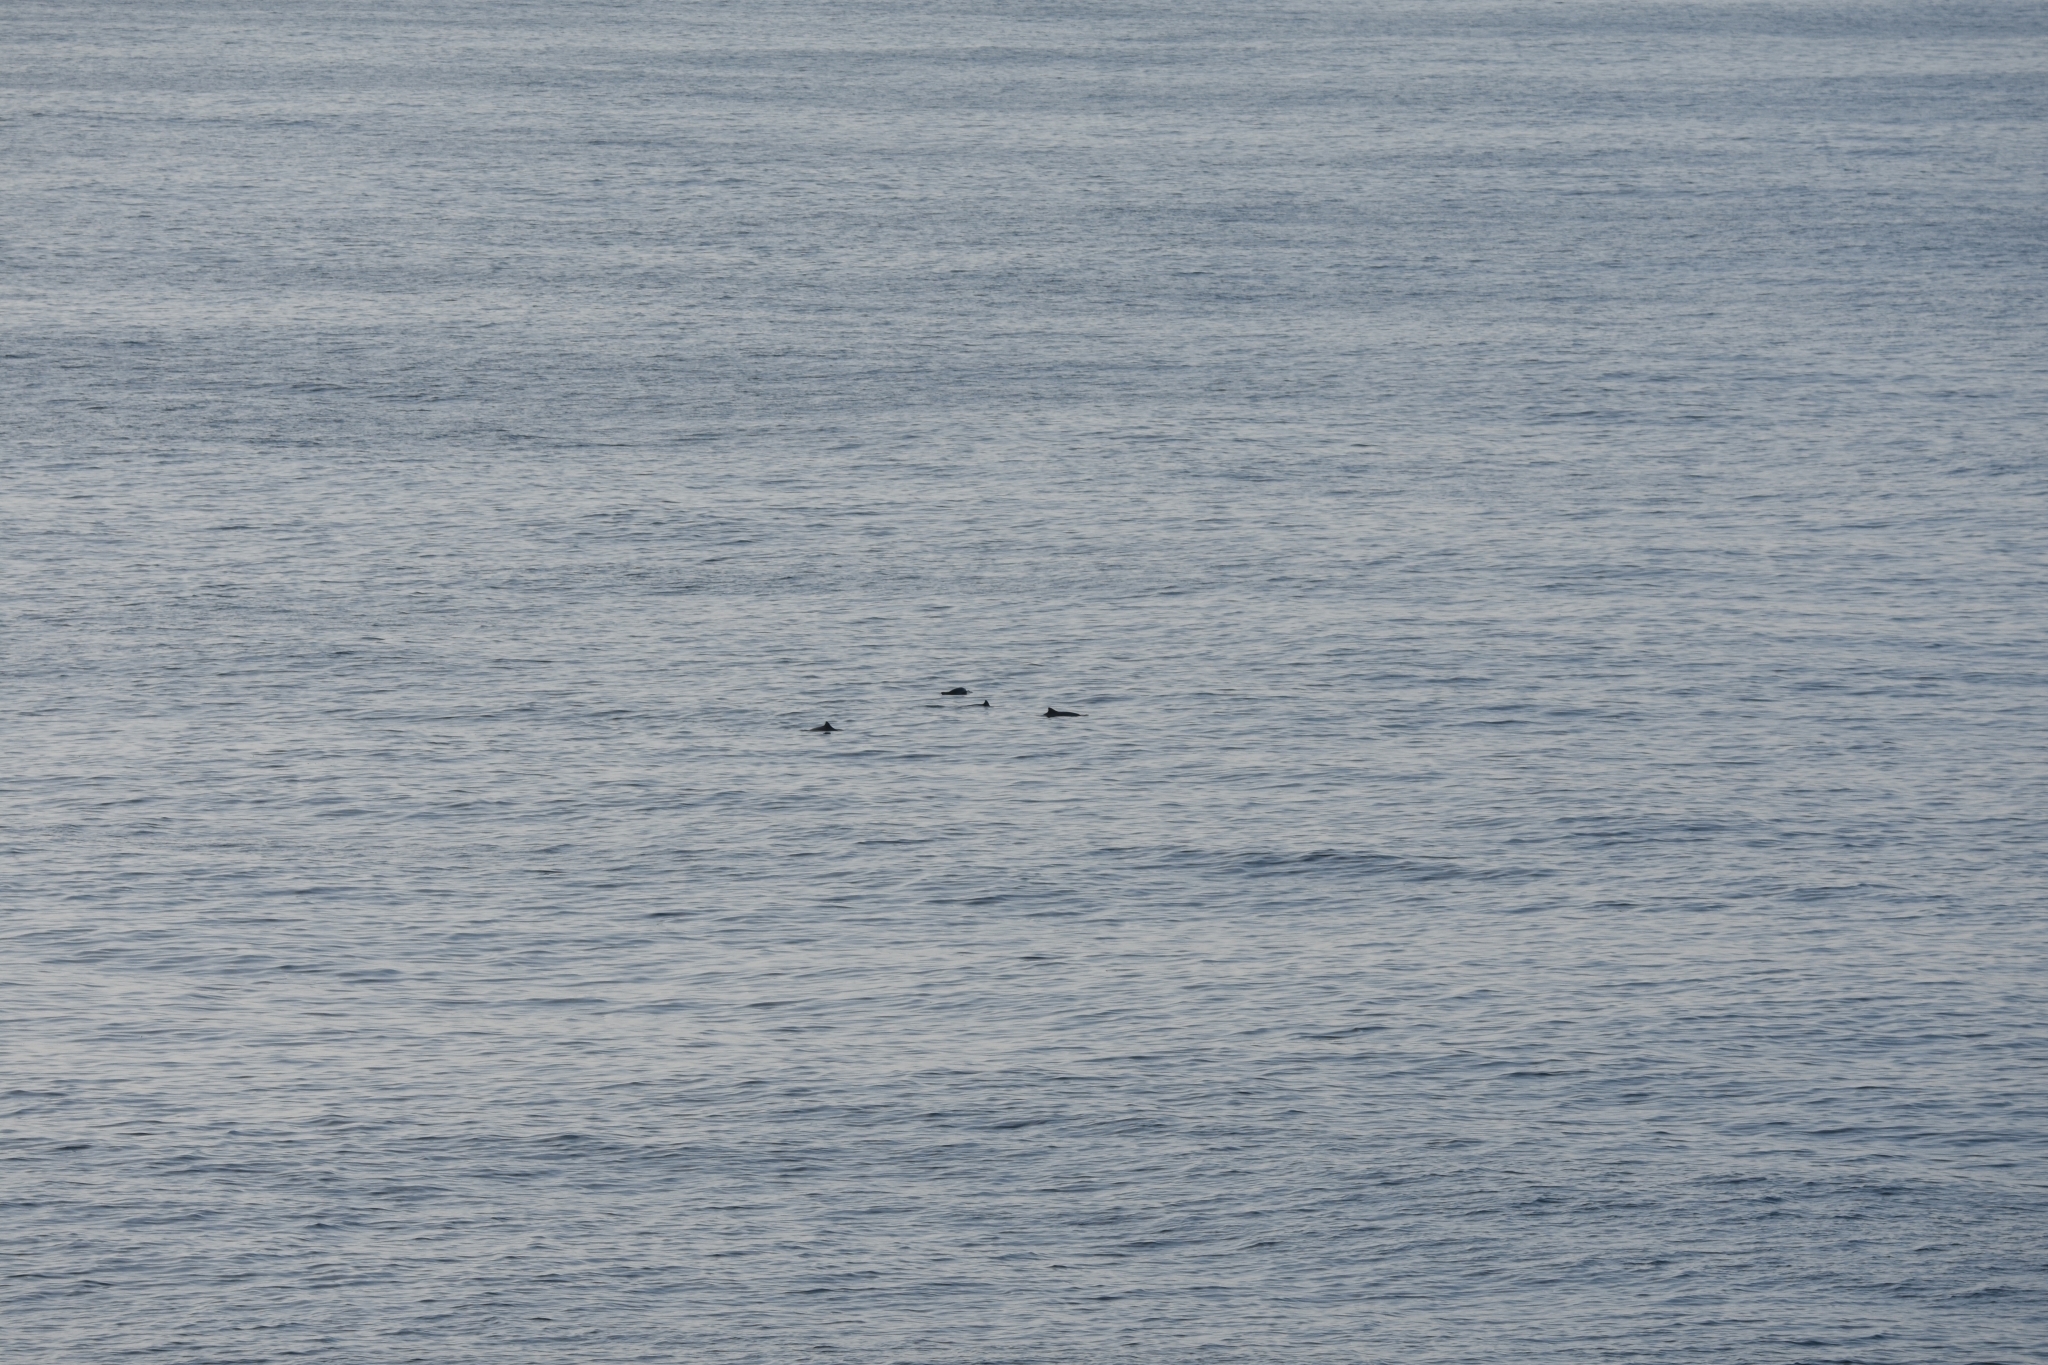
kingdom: Animalia
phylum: Chordata
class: Mammalia
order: Cetacea
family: Phocoenidae
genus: Phocoena
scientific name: Phocoena phocoena
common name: Harbor porpoise
